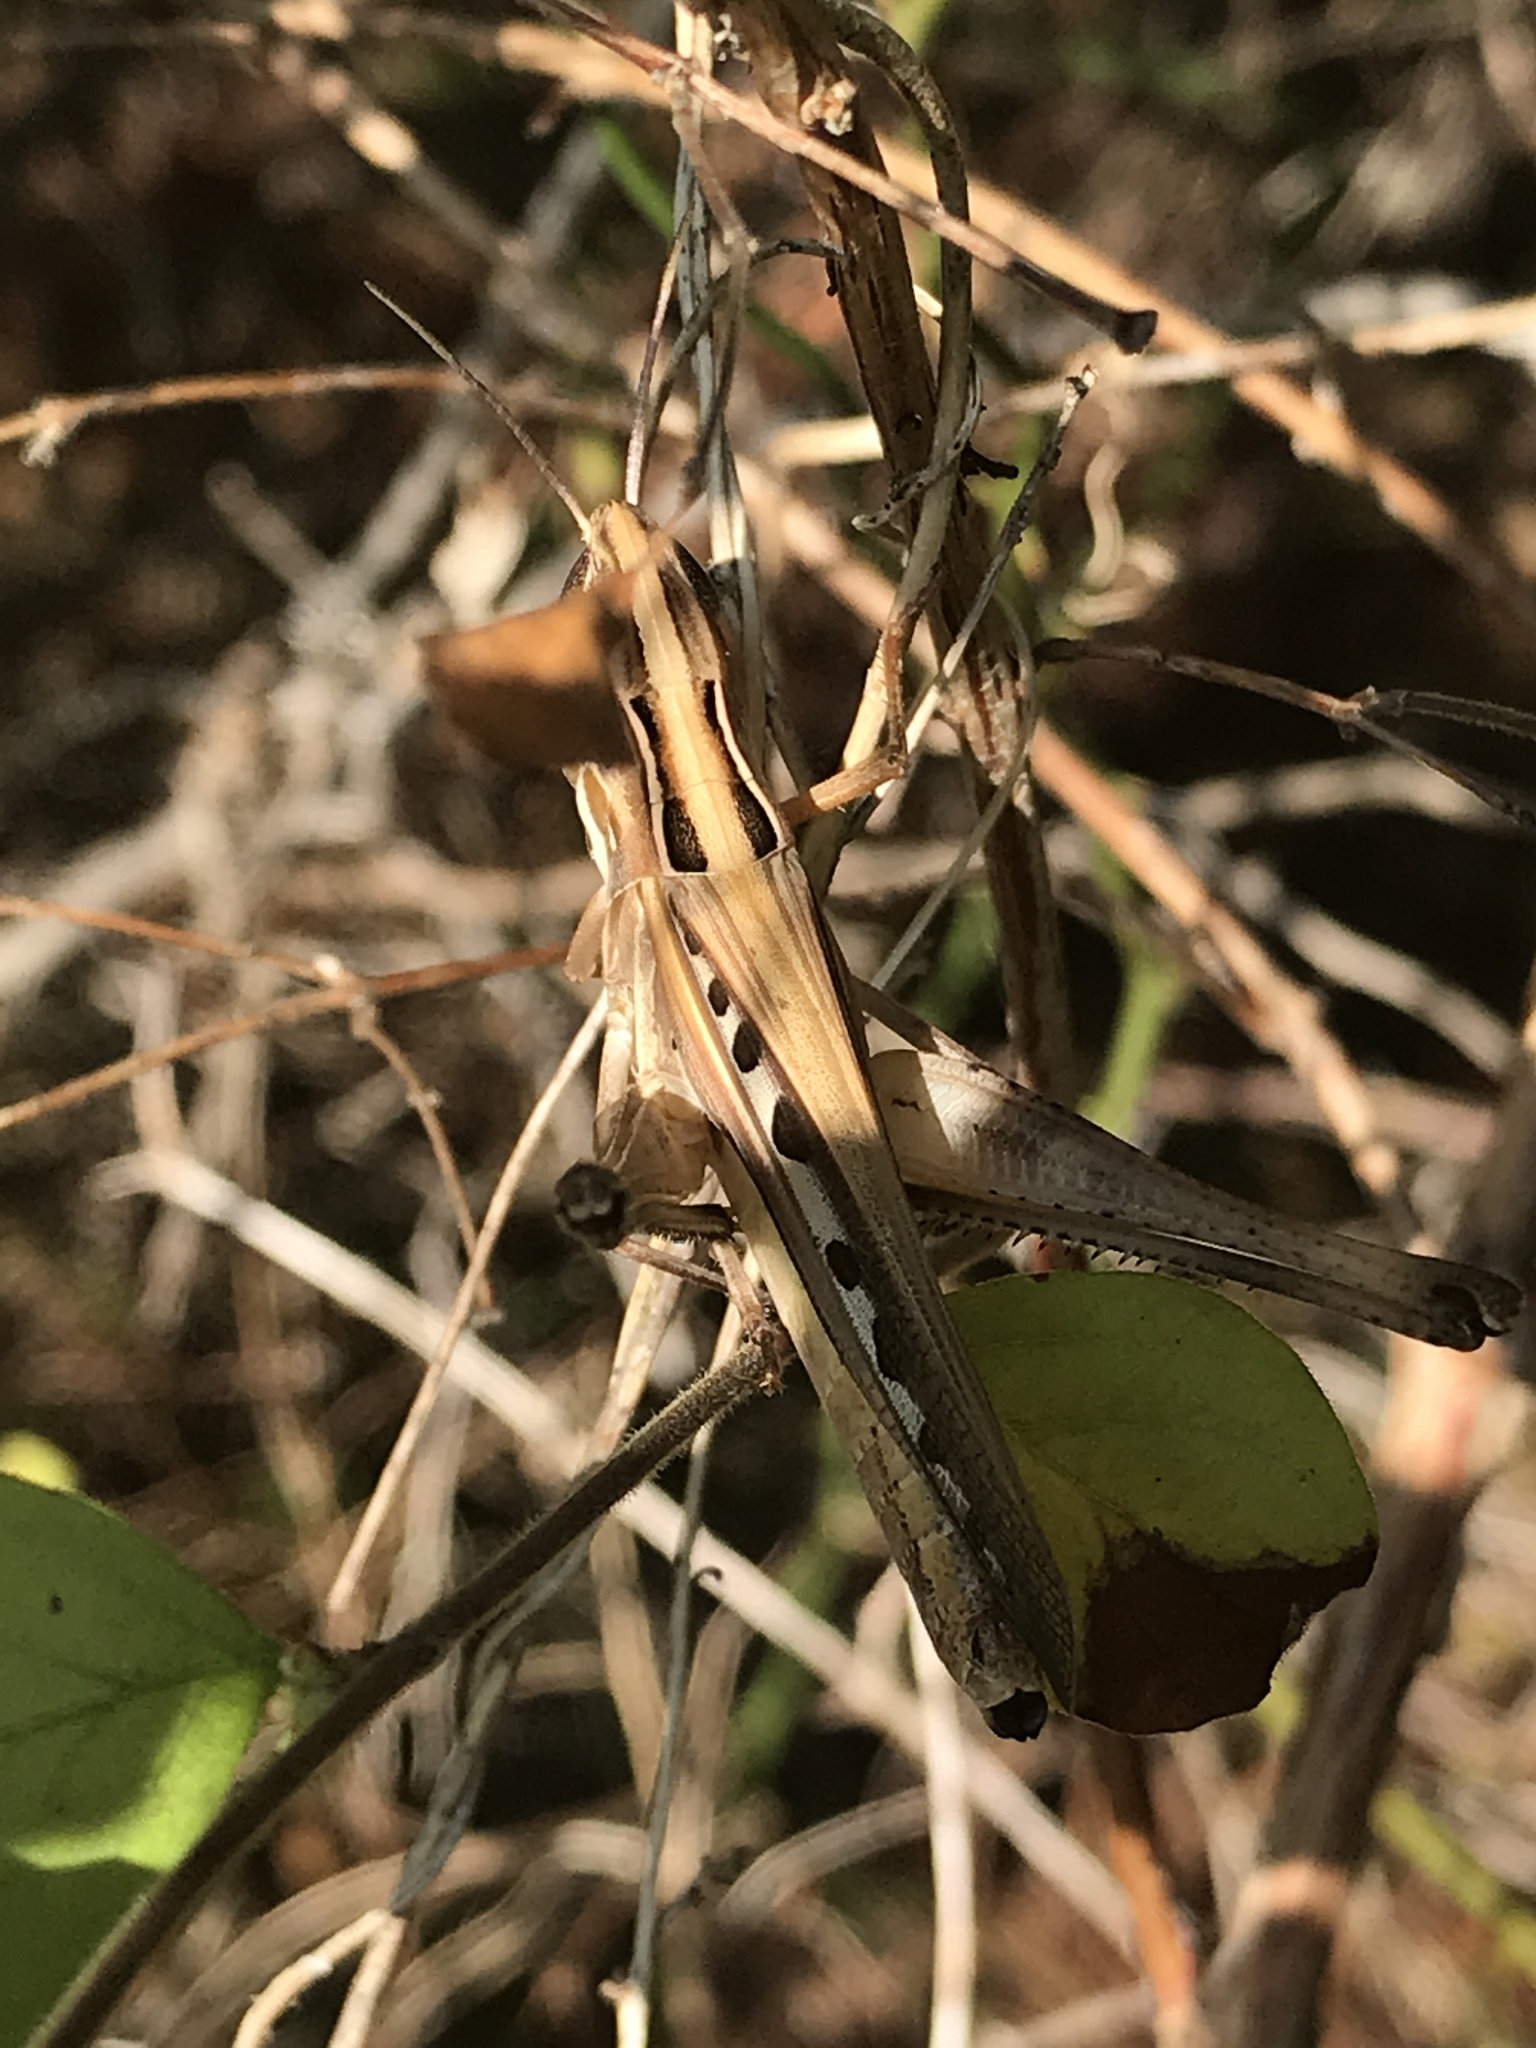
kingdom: Animalia
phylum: Arthropoda
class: Insecta
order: Orthoptera
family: Acrididae
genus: Syrbula
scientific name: Syrbula admirabilis
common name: Handsome grasshopper
